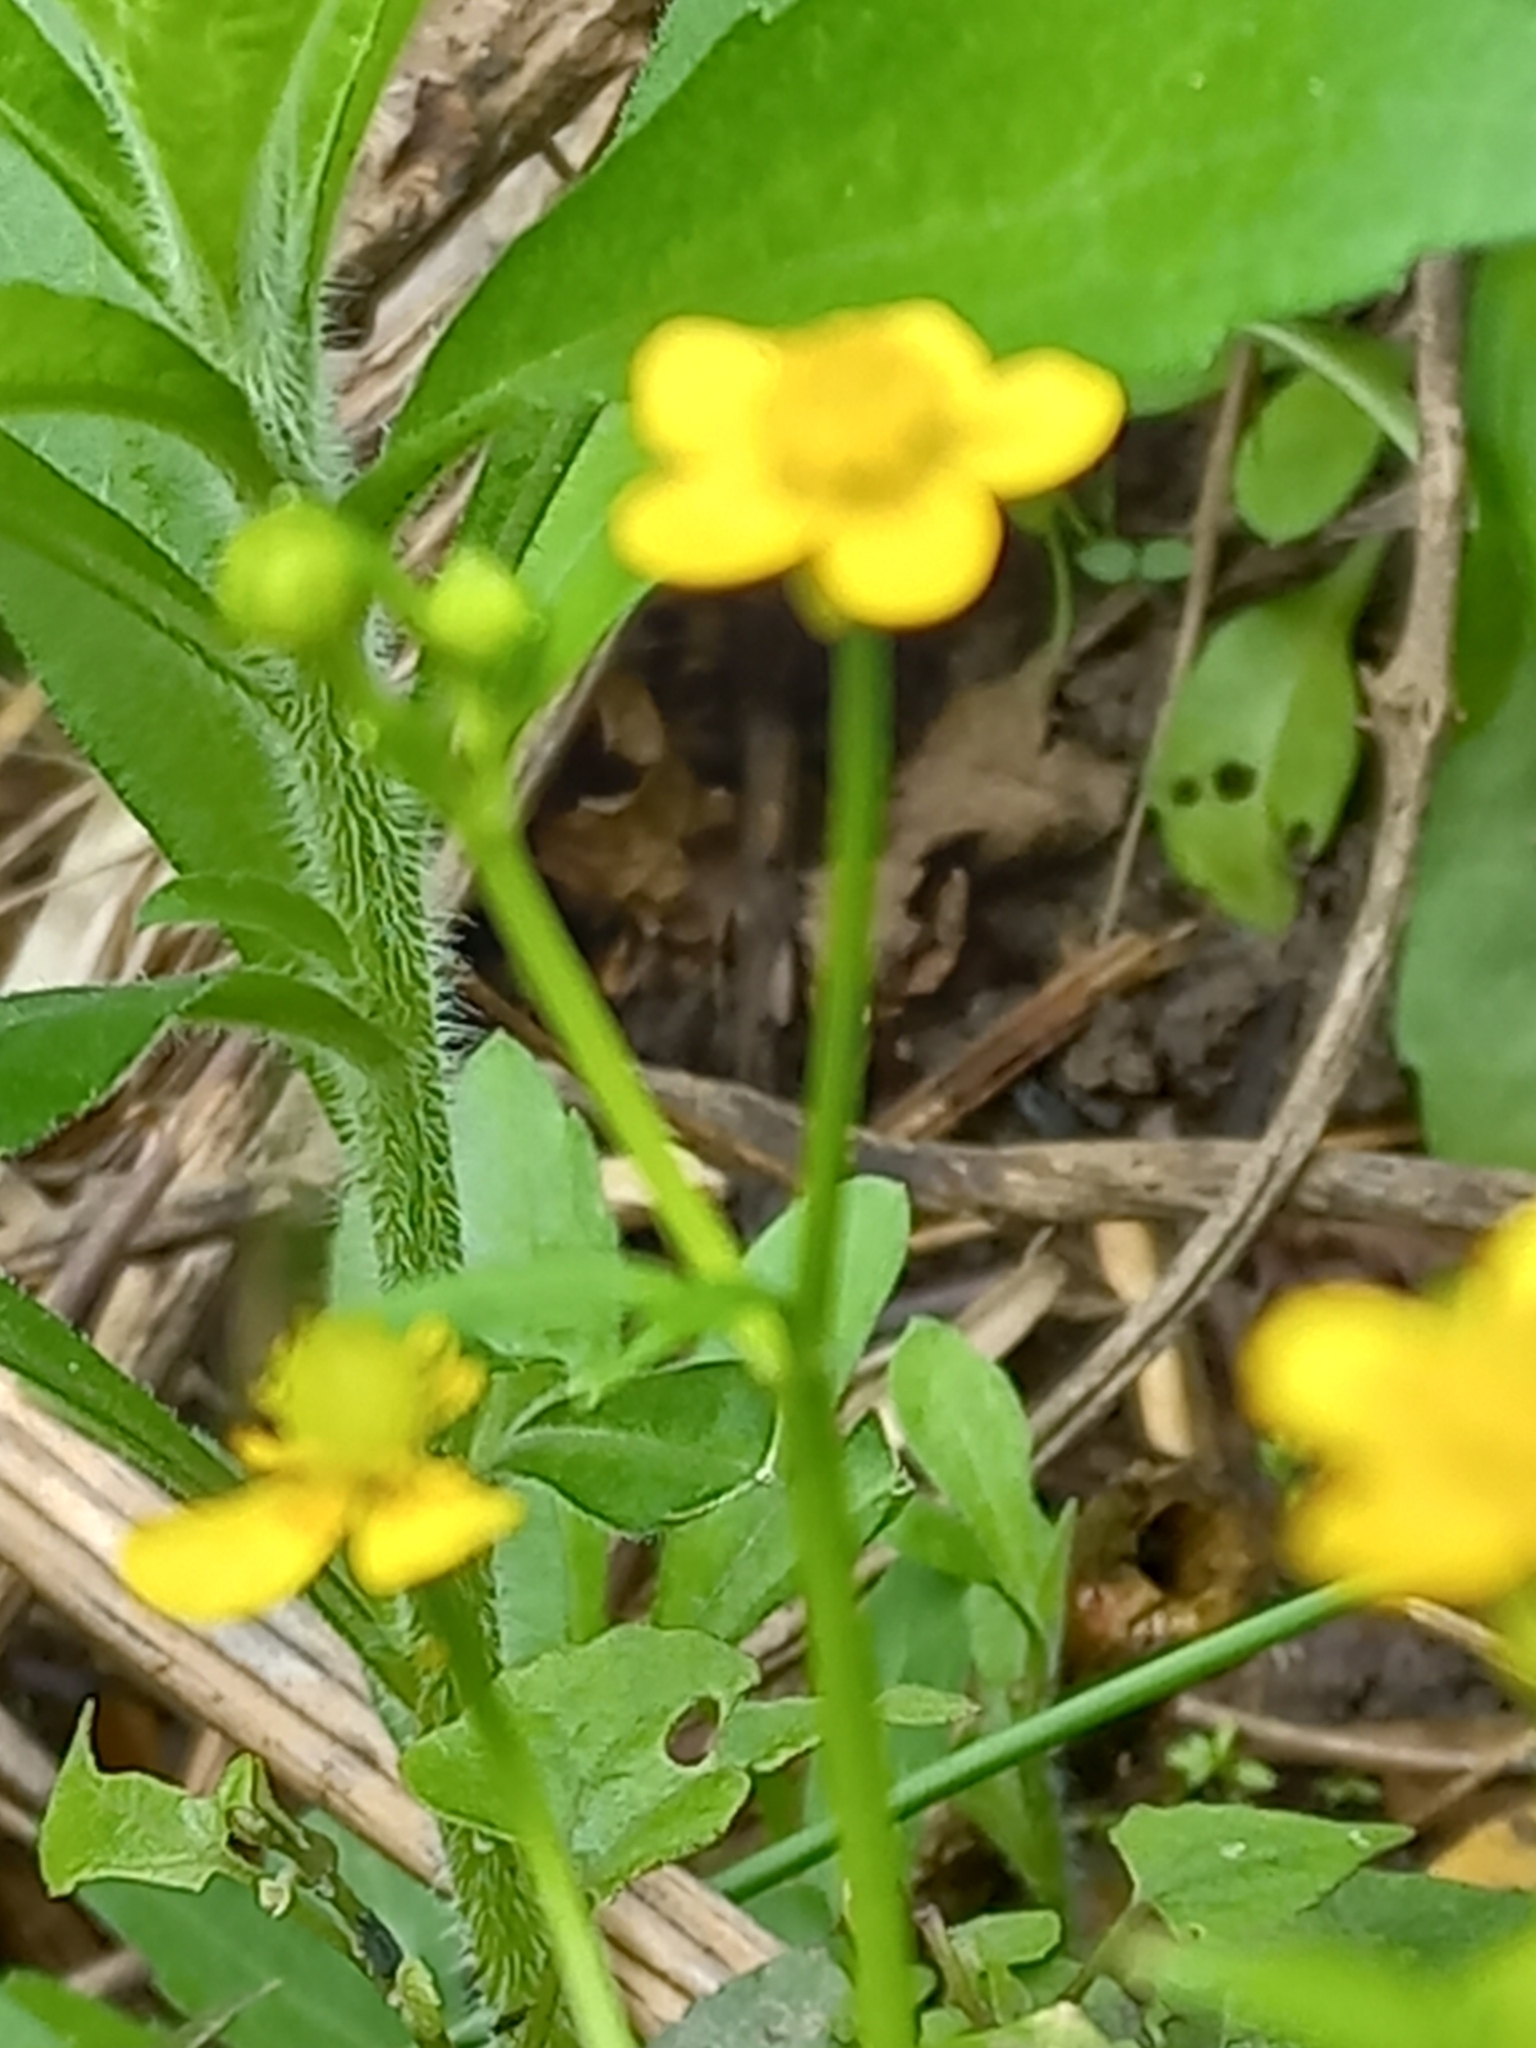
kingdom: Plantae
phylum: Tracheophyta
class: Magnoliopsida
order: Ranunculales
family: Ranunculaceae
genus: Ranunculus
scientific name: Ranunculus multifidus
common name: Wild buttercup
